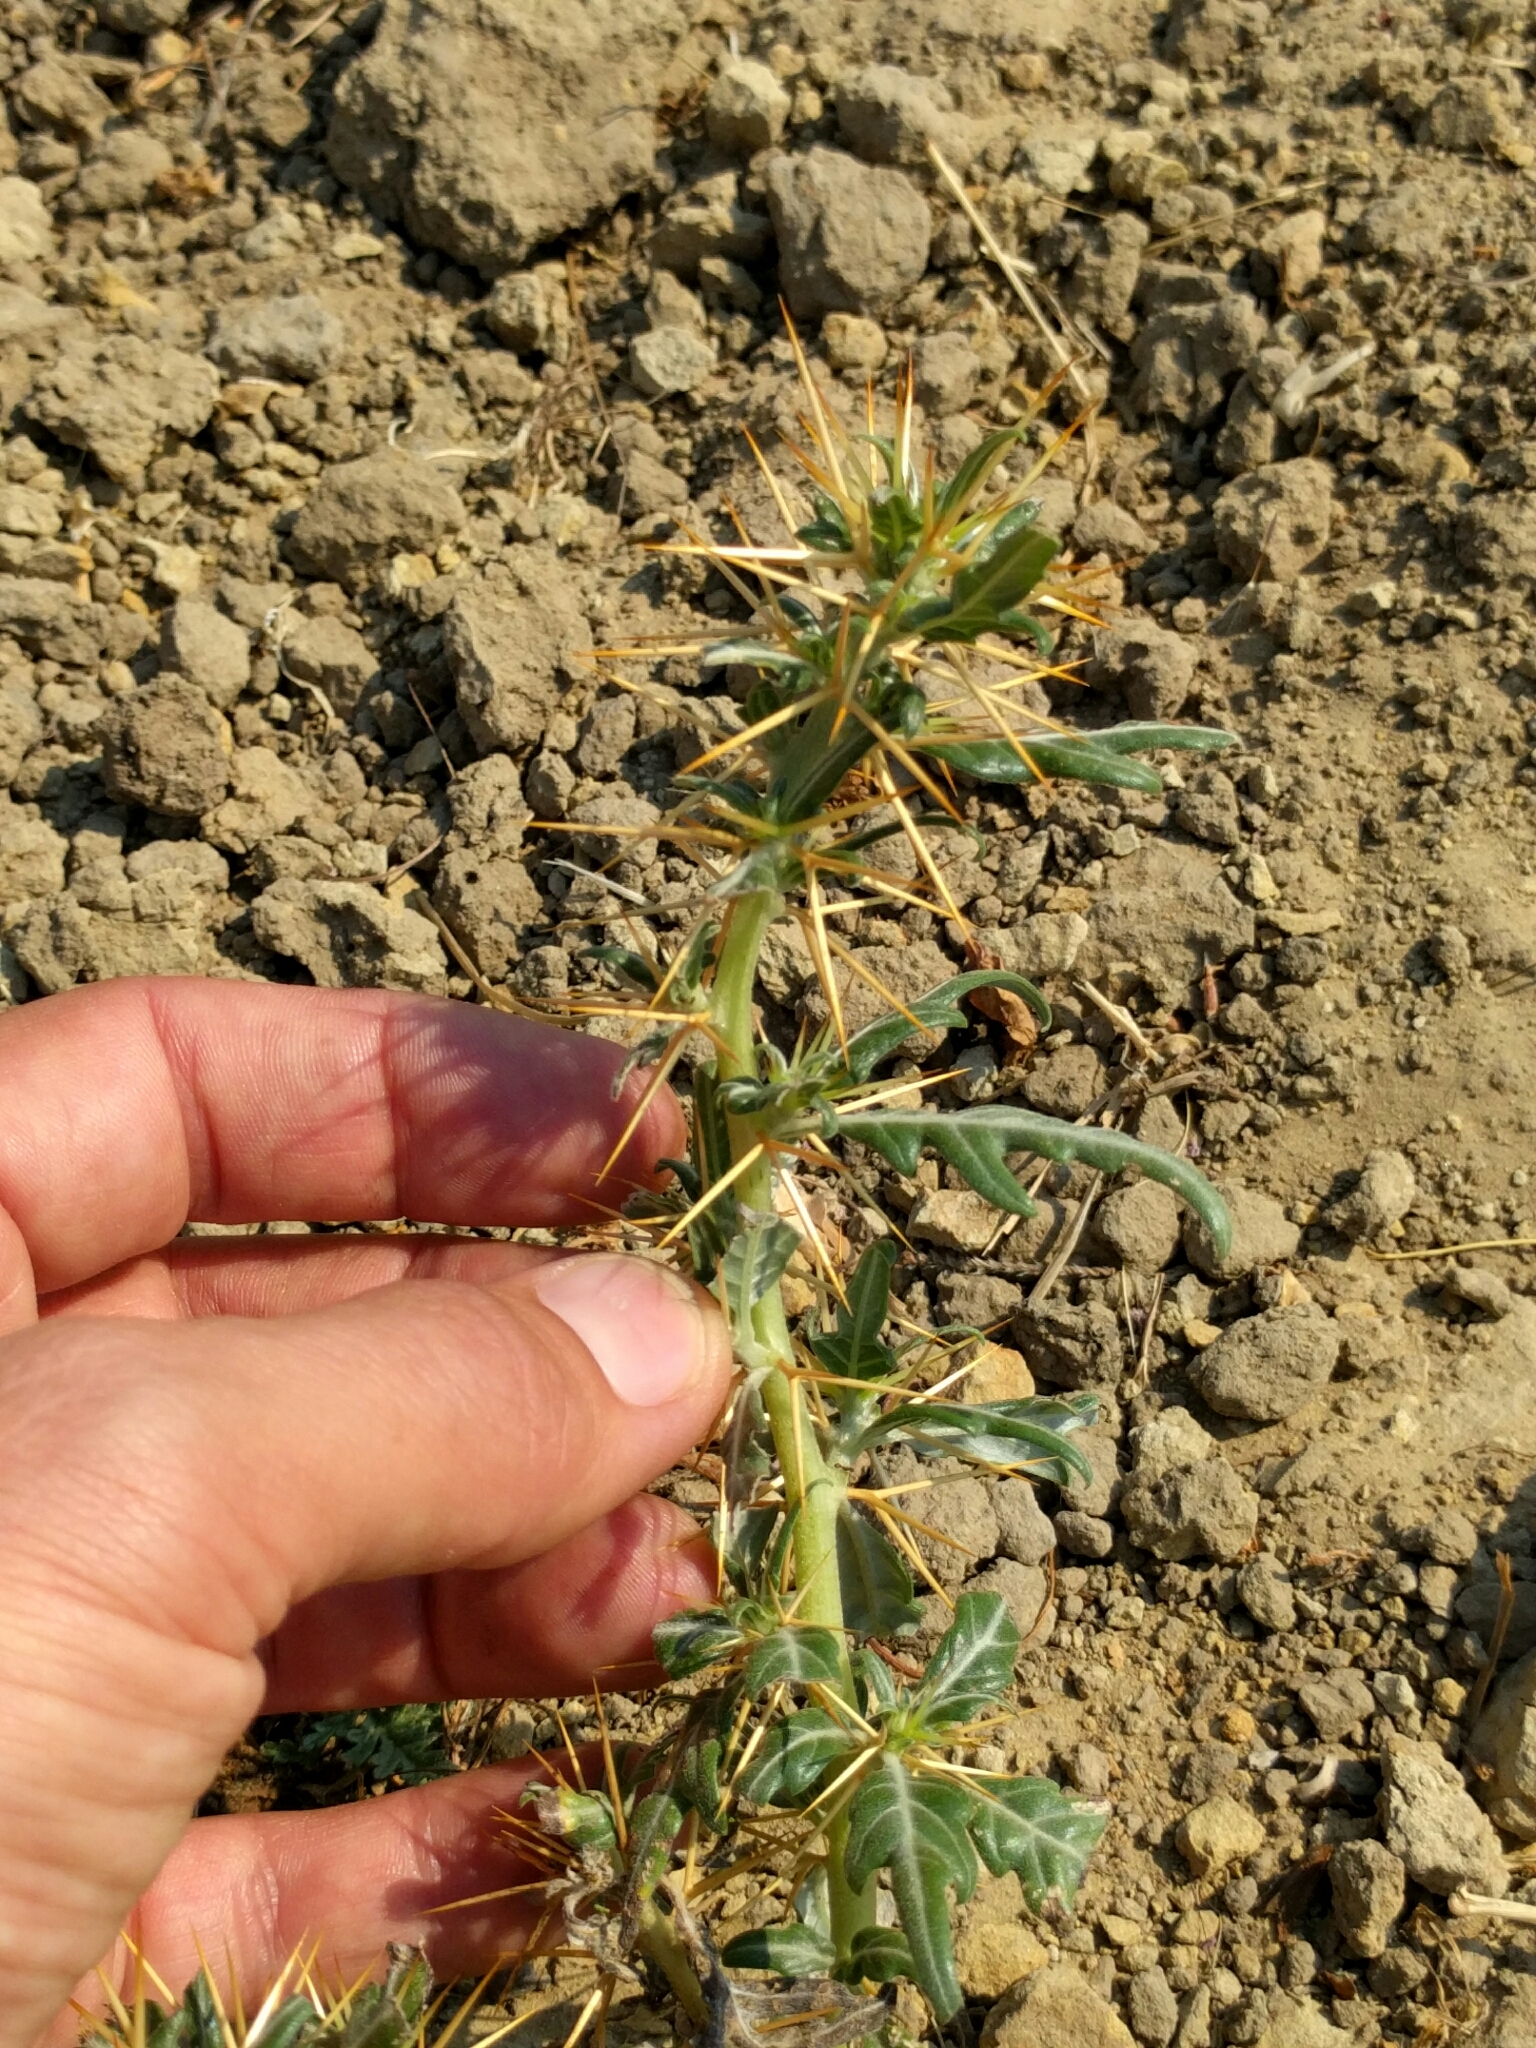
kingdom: Plantae
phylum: Tracheophyta
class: Magnoliopsida
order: Asterales
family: Asteraceae
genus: Xanthium
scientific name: Xanthium spinosum
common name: Spiny cocklebur
